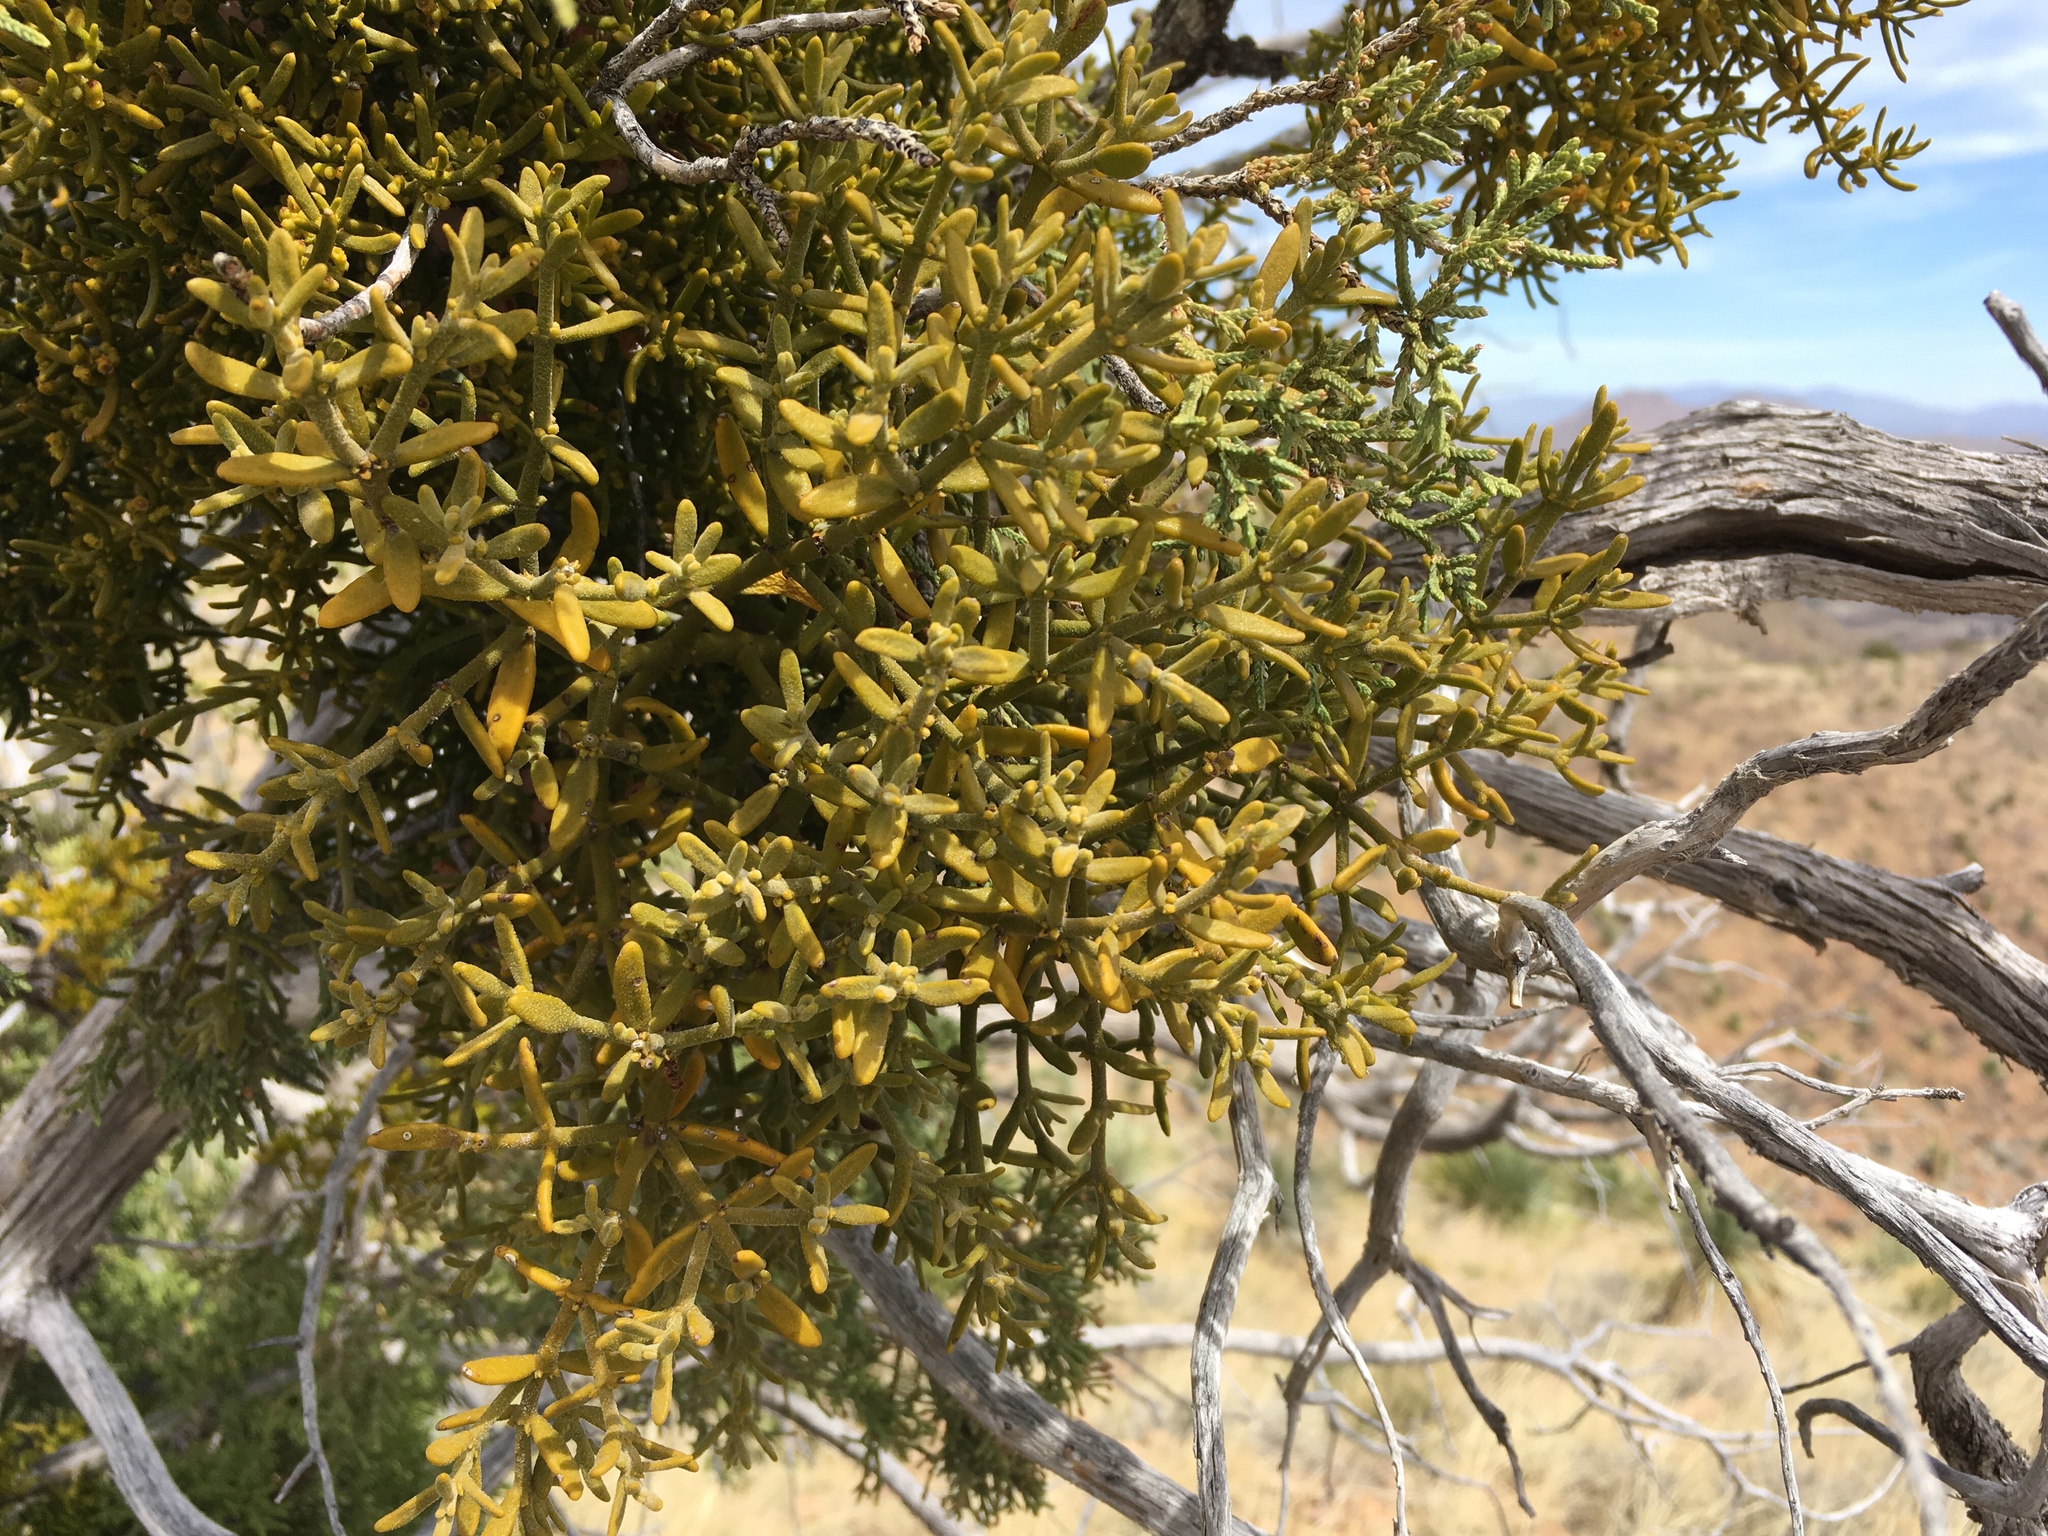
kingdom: Plantae
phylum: Tracheophyta
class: Magnoliopsida
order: Santalales
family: Viscaceae
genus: Phoradendron
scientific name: Phoradendron capitellatum
